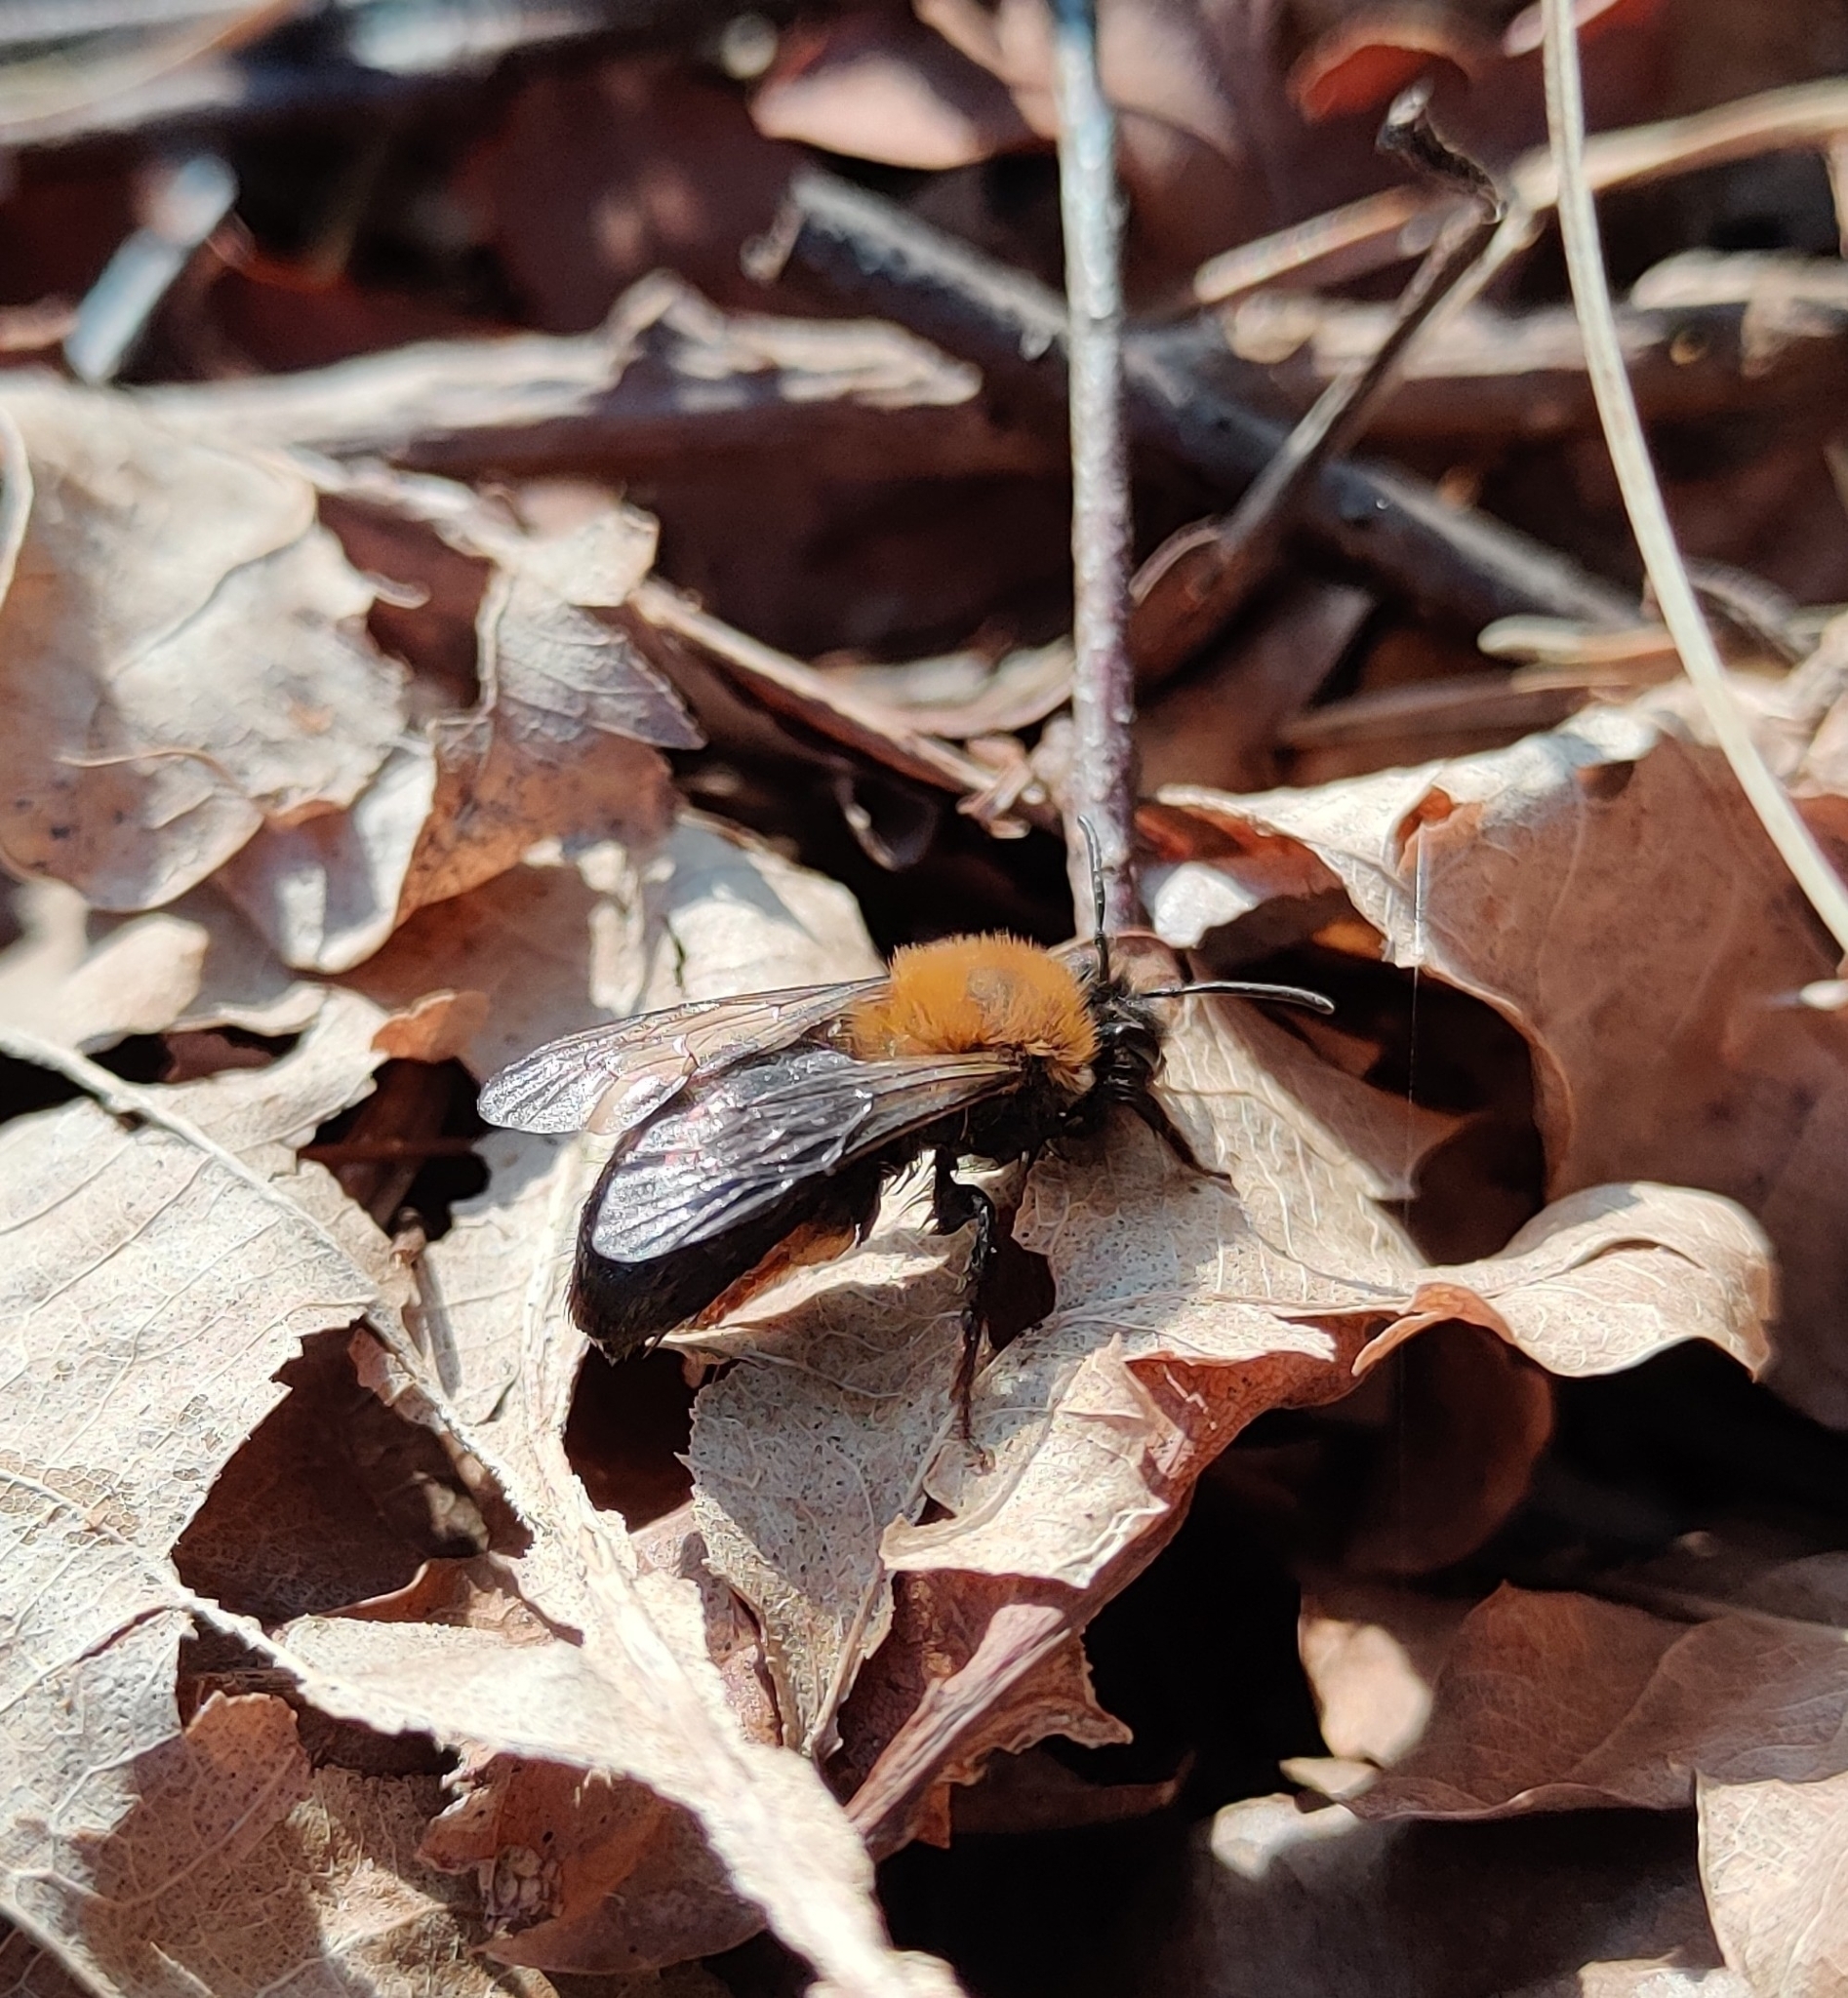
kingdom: Animalia
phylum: Arthropoda
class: Insecta
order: Hymenoptera
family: Andrenidae
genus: Andrena
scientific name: Andrena clarkella
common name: Clarke's mining bee
